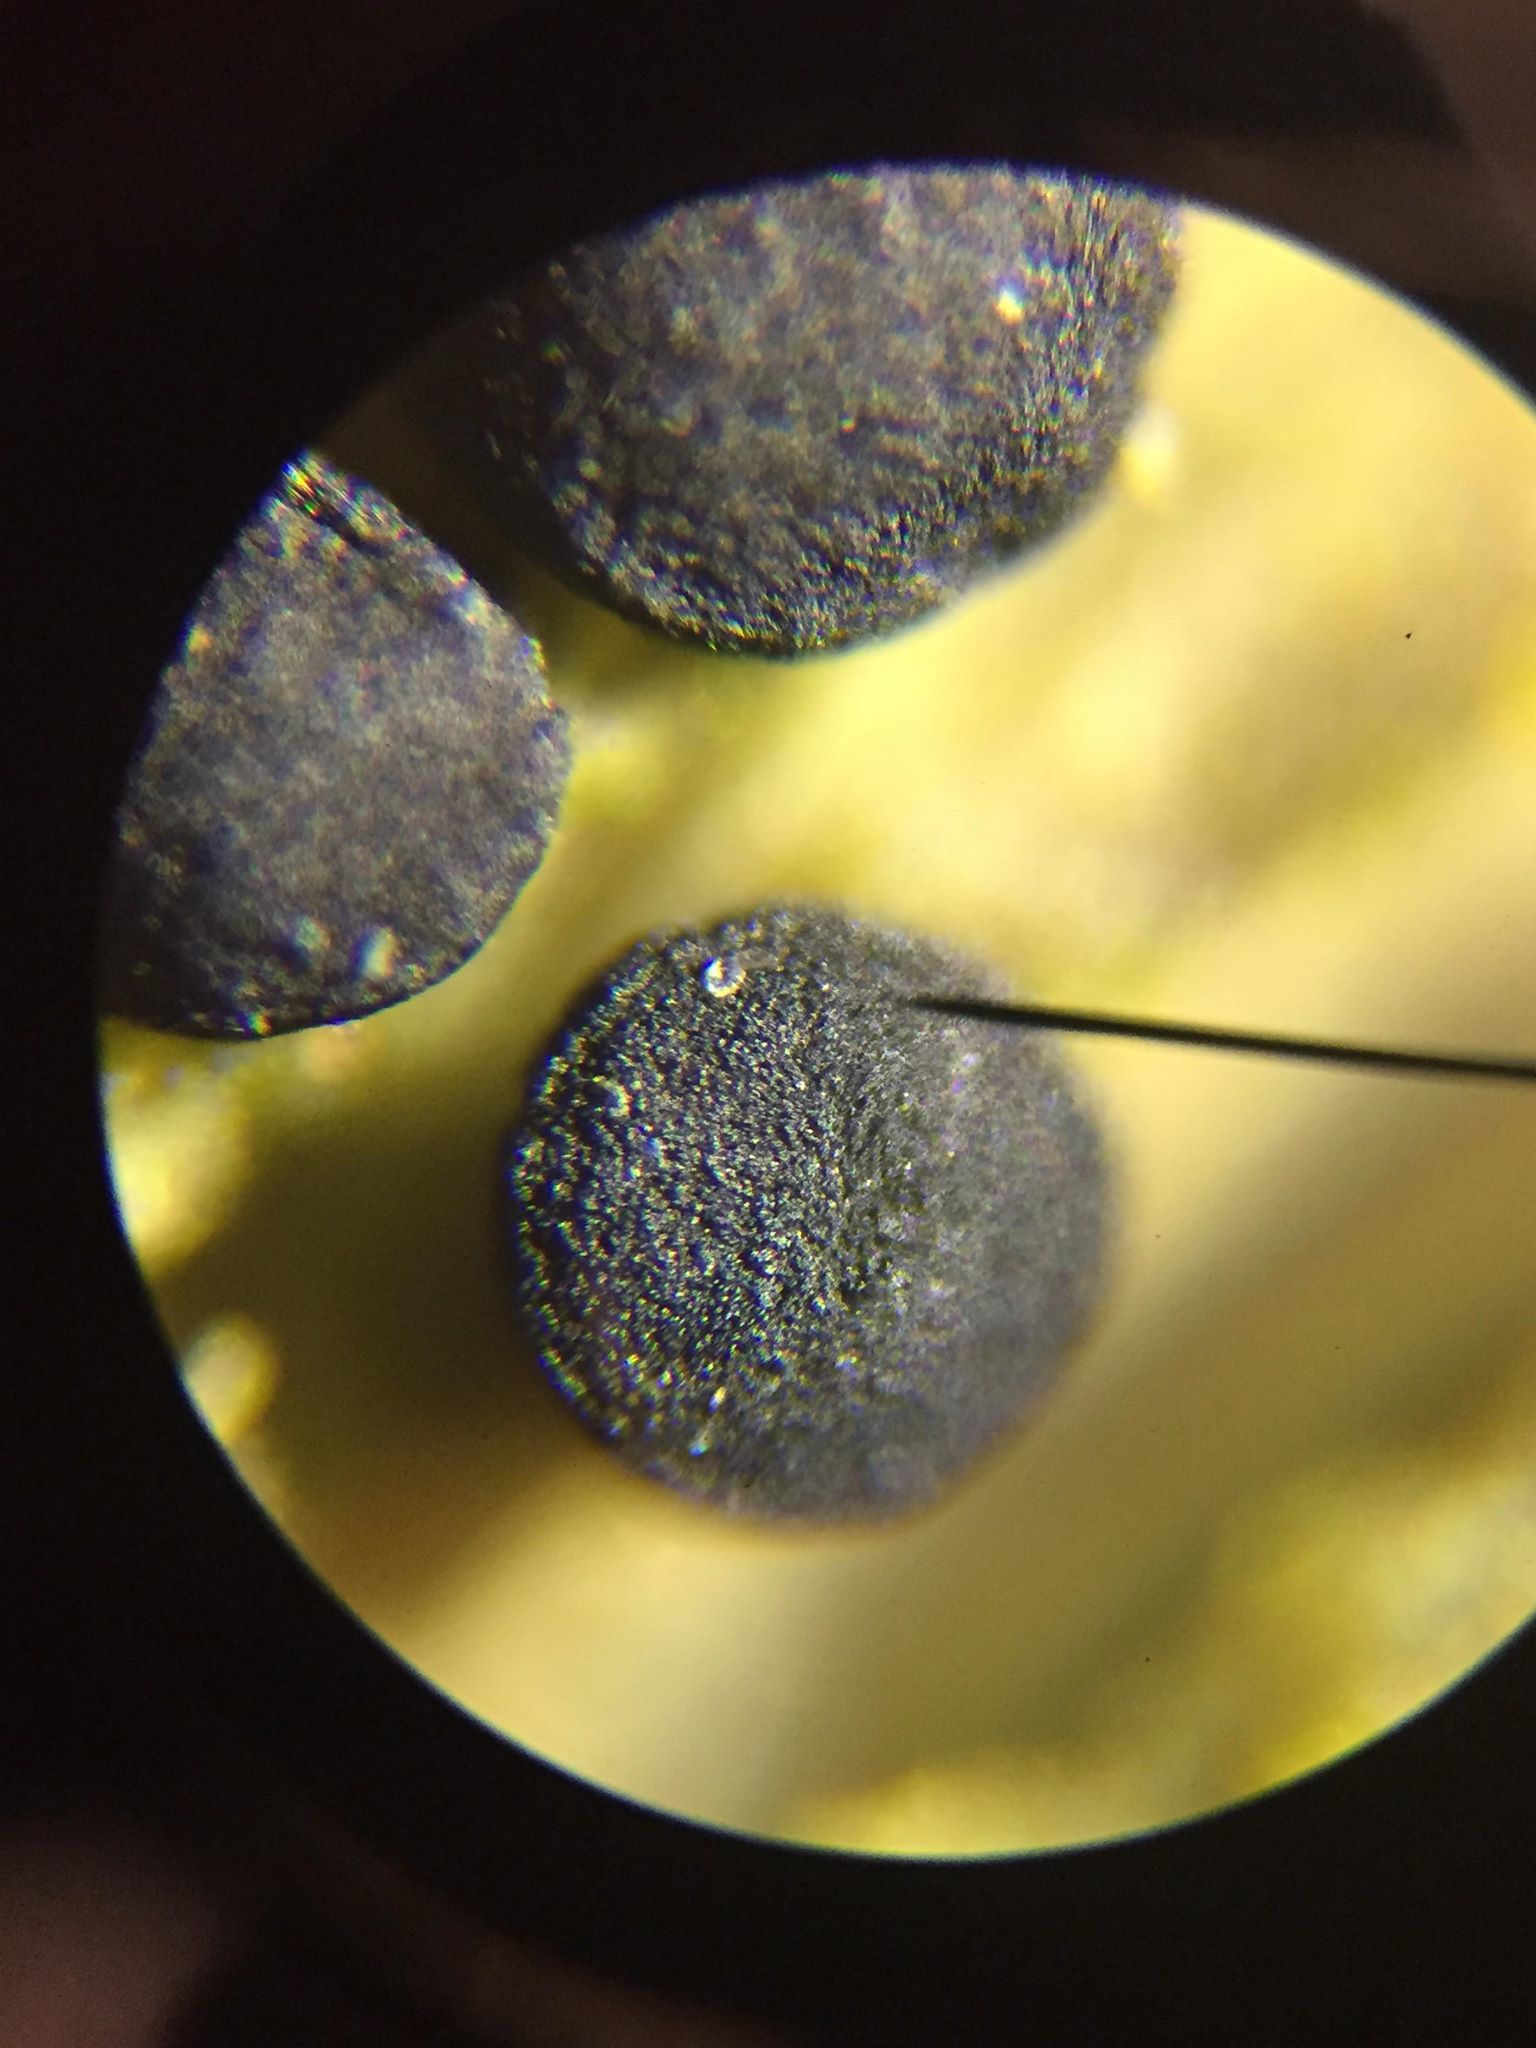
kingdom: Fungi
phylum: Ascomycota
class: Dothideomycetes
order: Patellariales
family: Patellariaceae
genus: Patellaria
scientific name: Patellaria atrata
